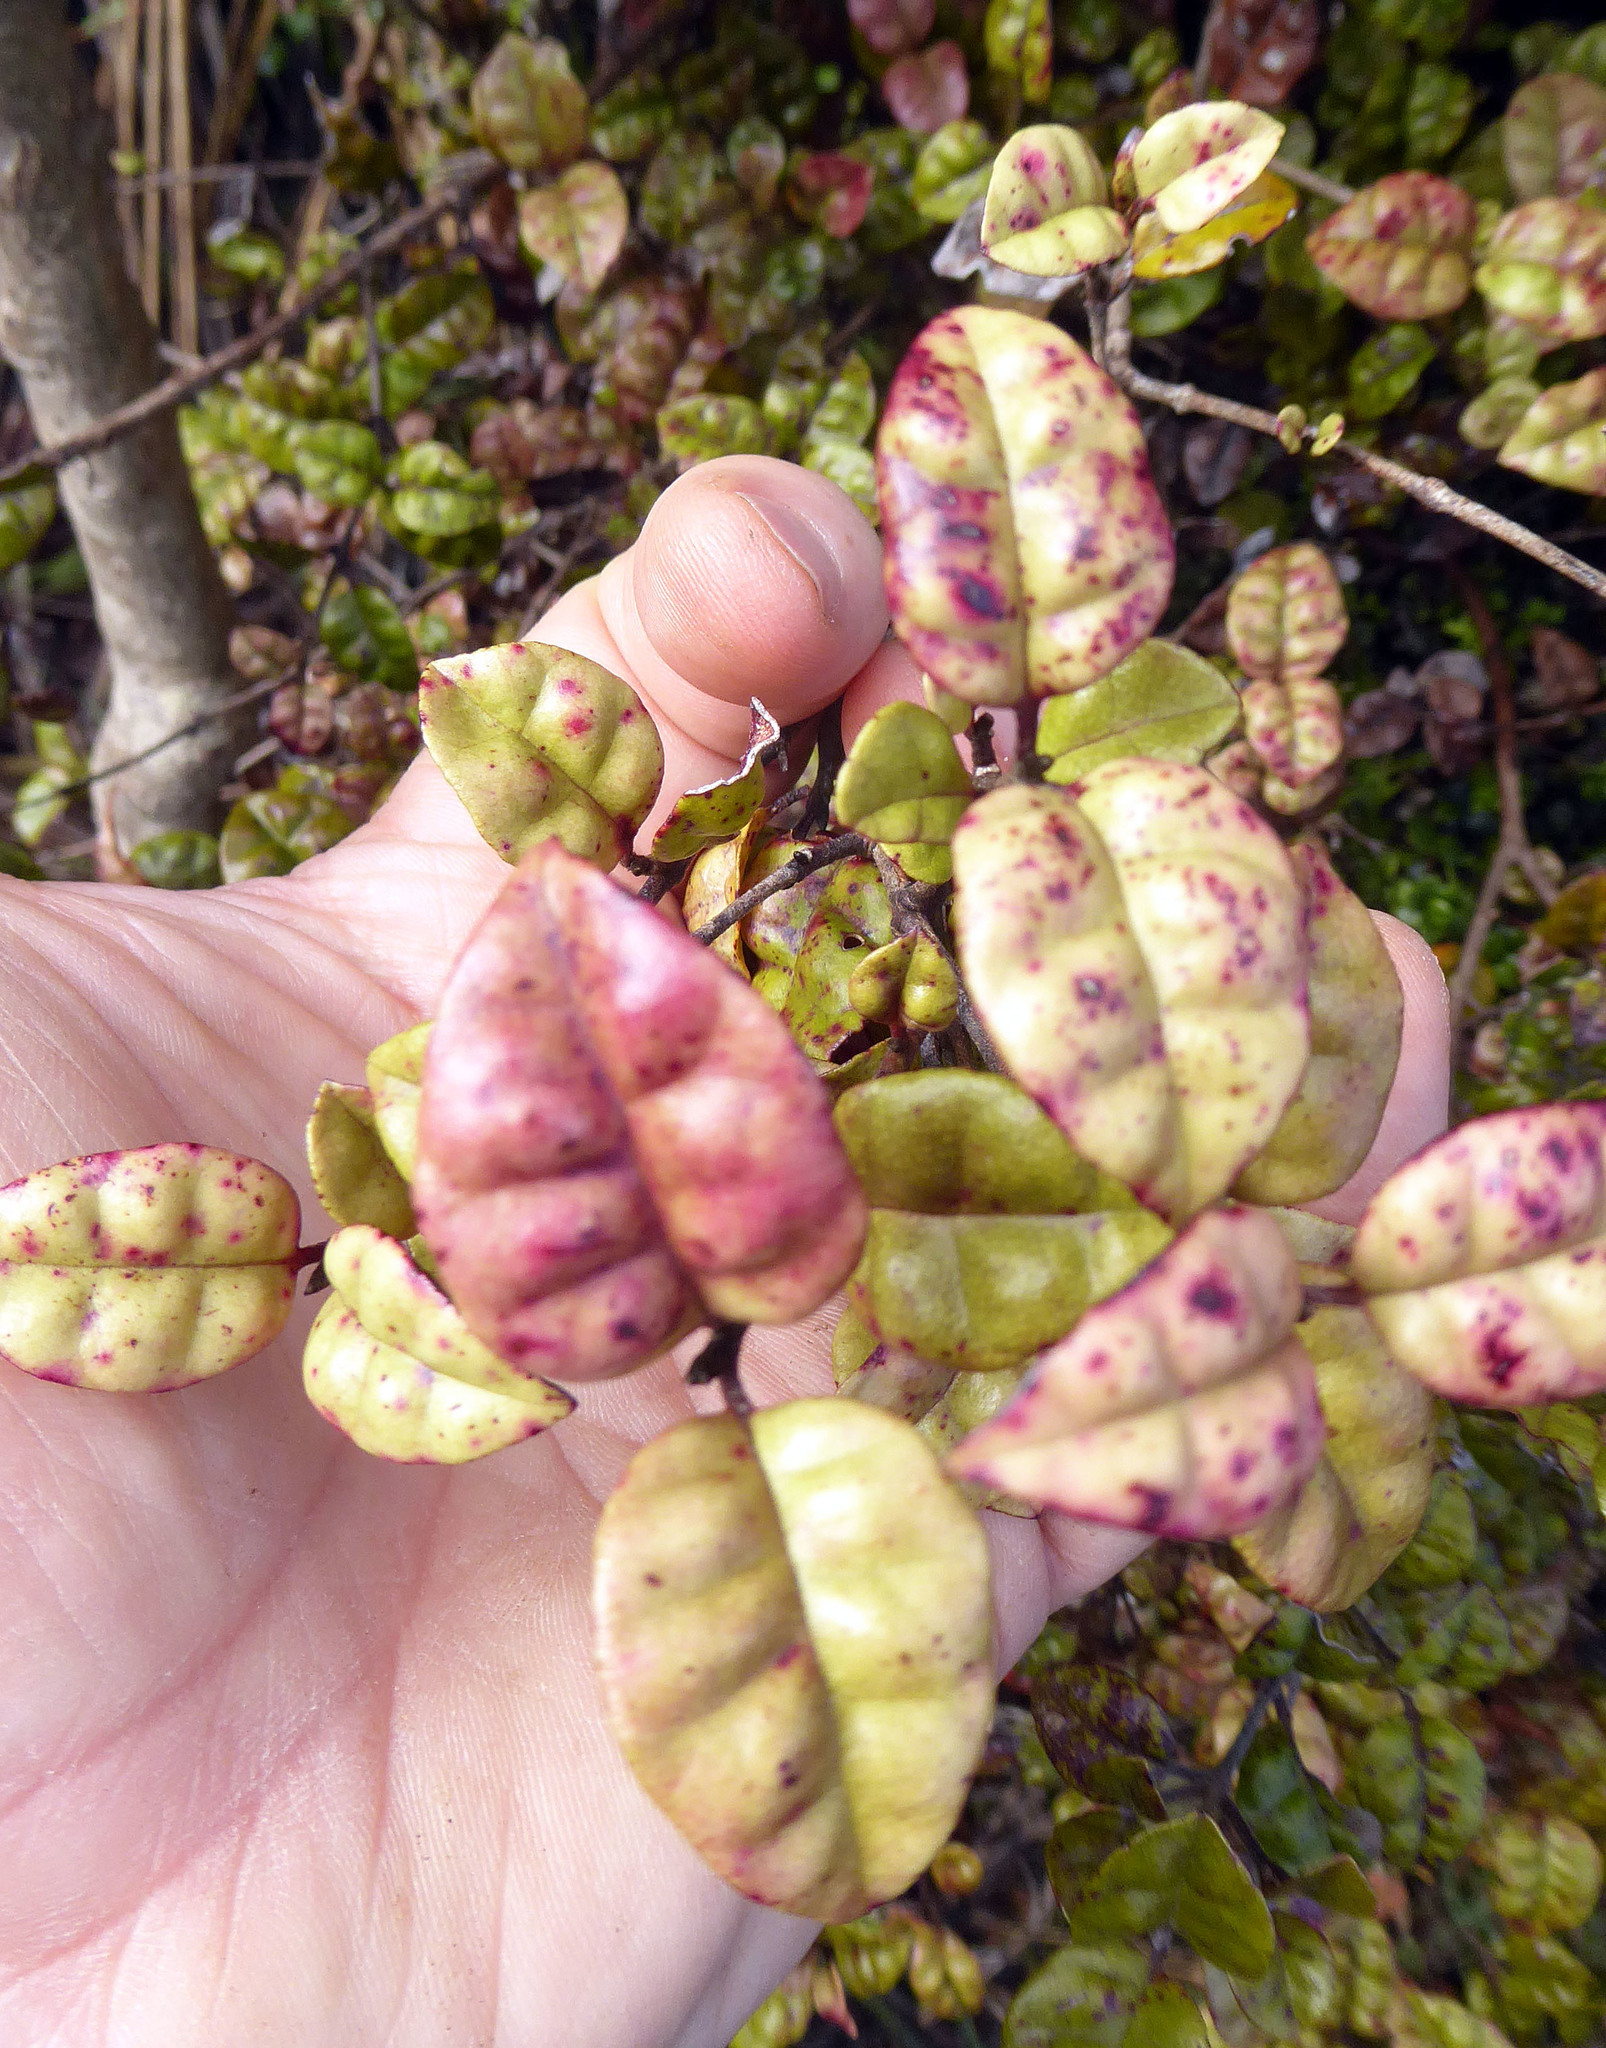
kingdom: Plantae
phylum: Tracheophyta
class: Magnoliopsida
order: Myrtales
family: Myrtaceae
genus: Lophomyrtus
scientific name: Lophomyrtus bullata
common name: Rama rama
